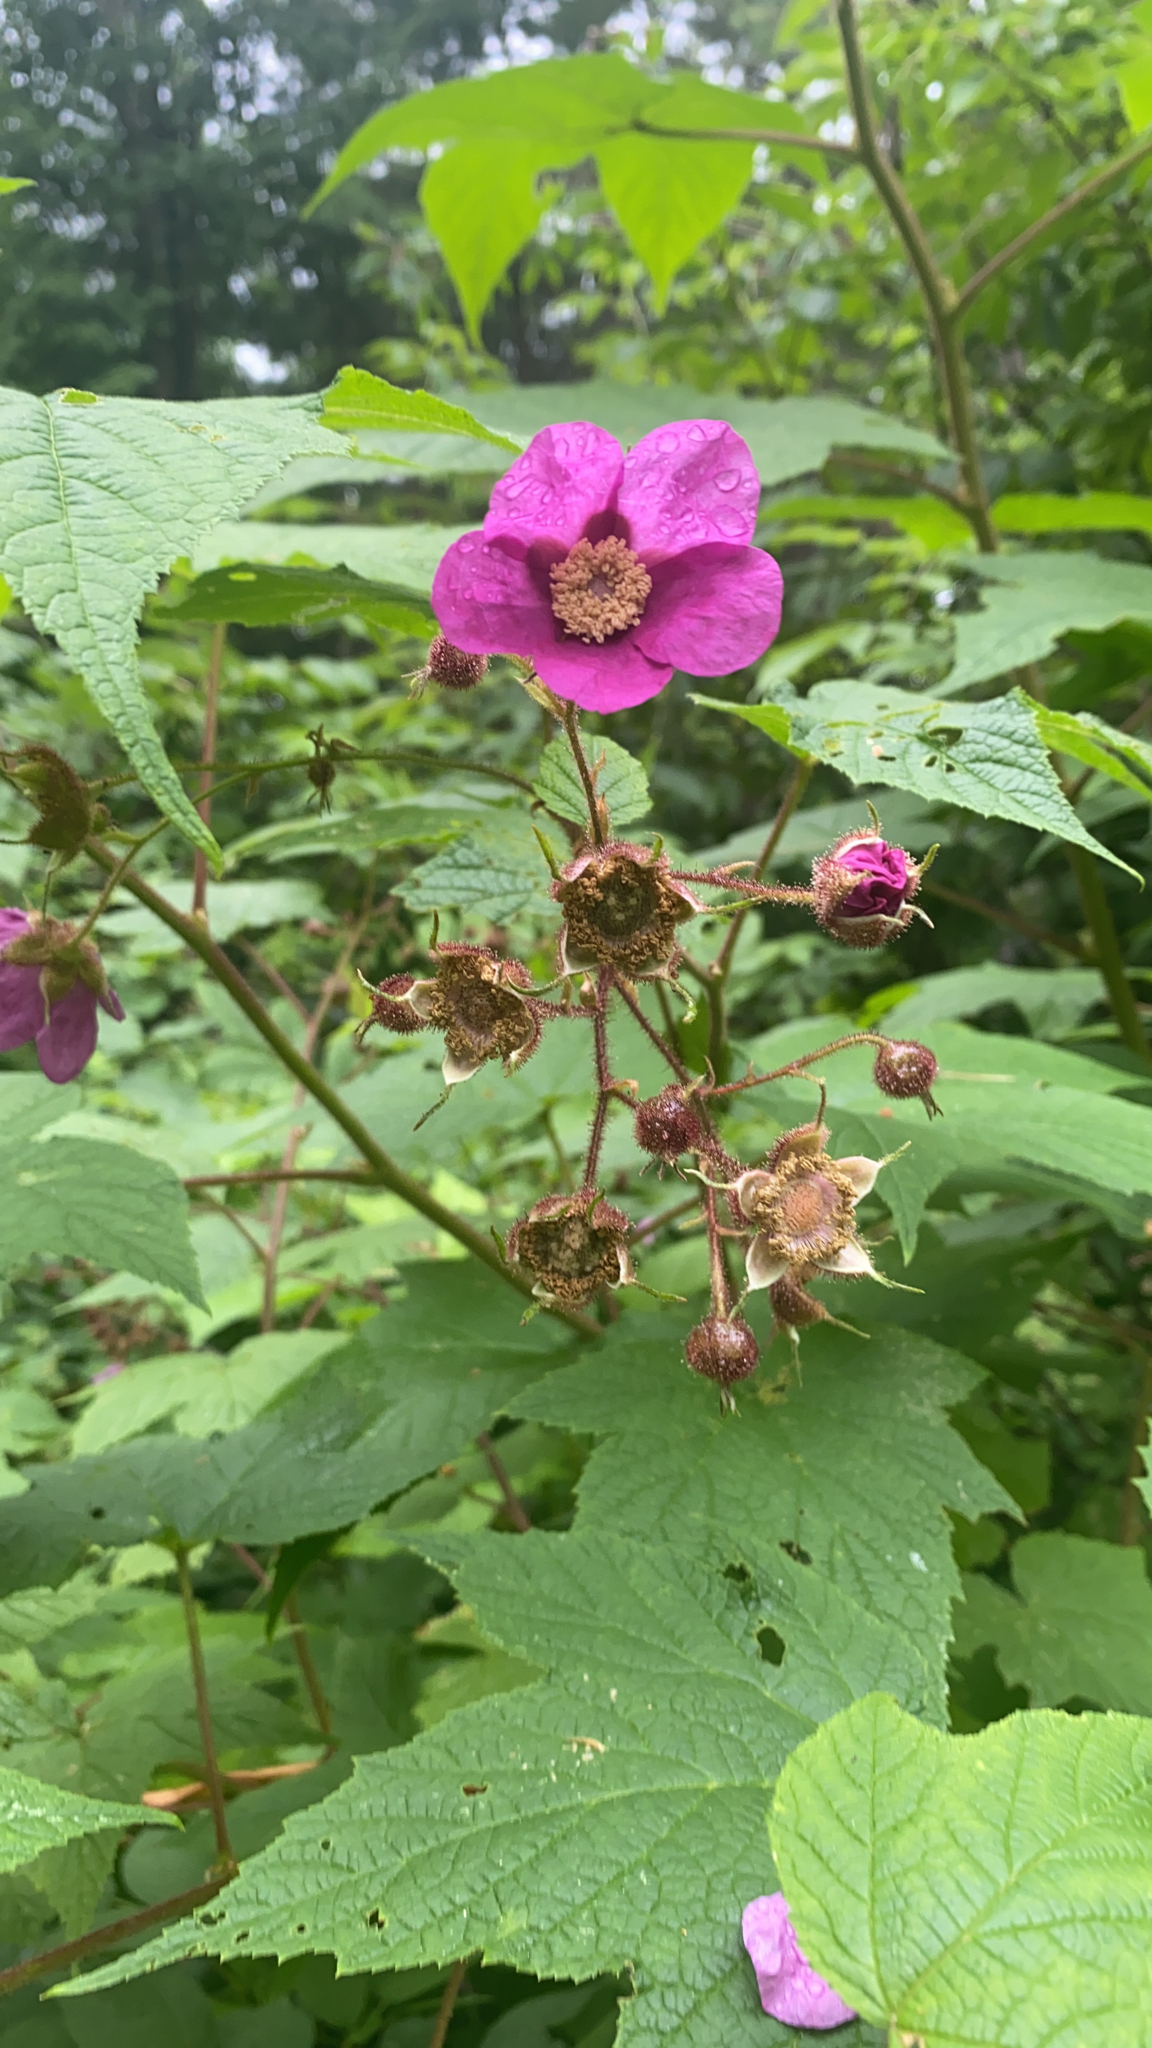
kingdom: Plantae
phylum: Tracheophyta
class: Magnoliopsida
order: Rosales
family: Rosaceae
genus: Rubus
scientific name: Rubus odoratus
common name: Purple-flowered raspberry
